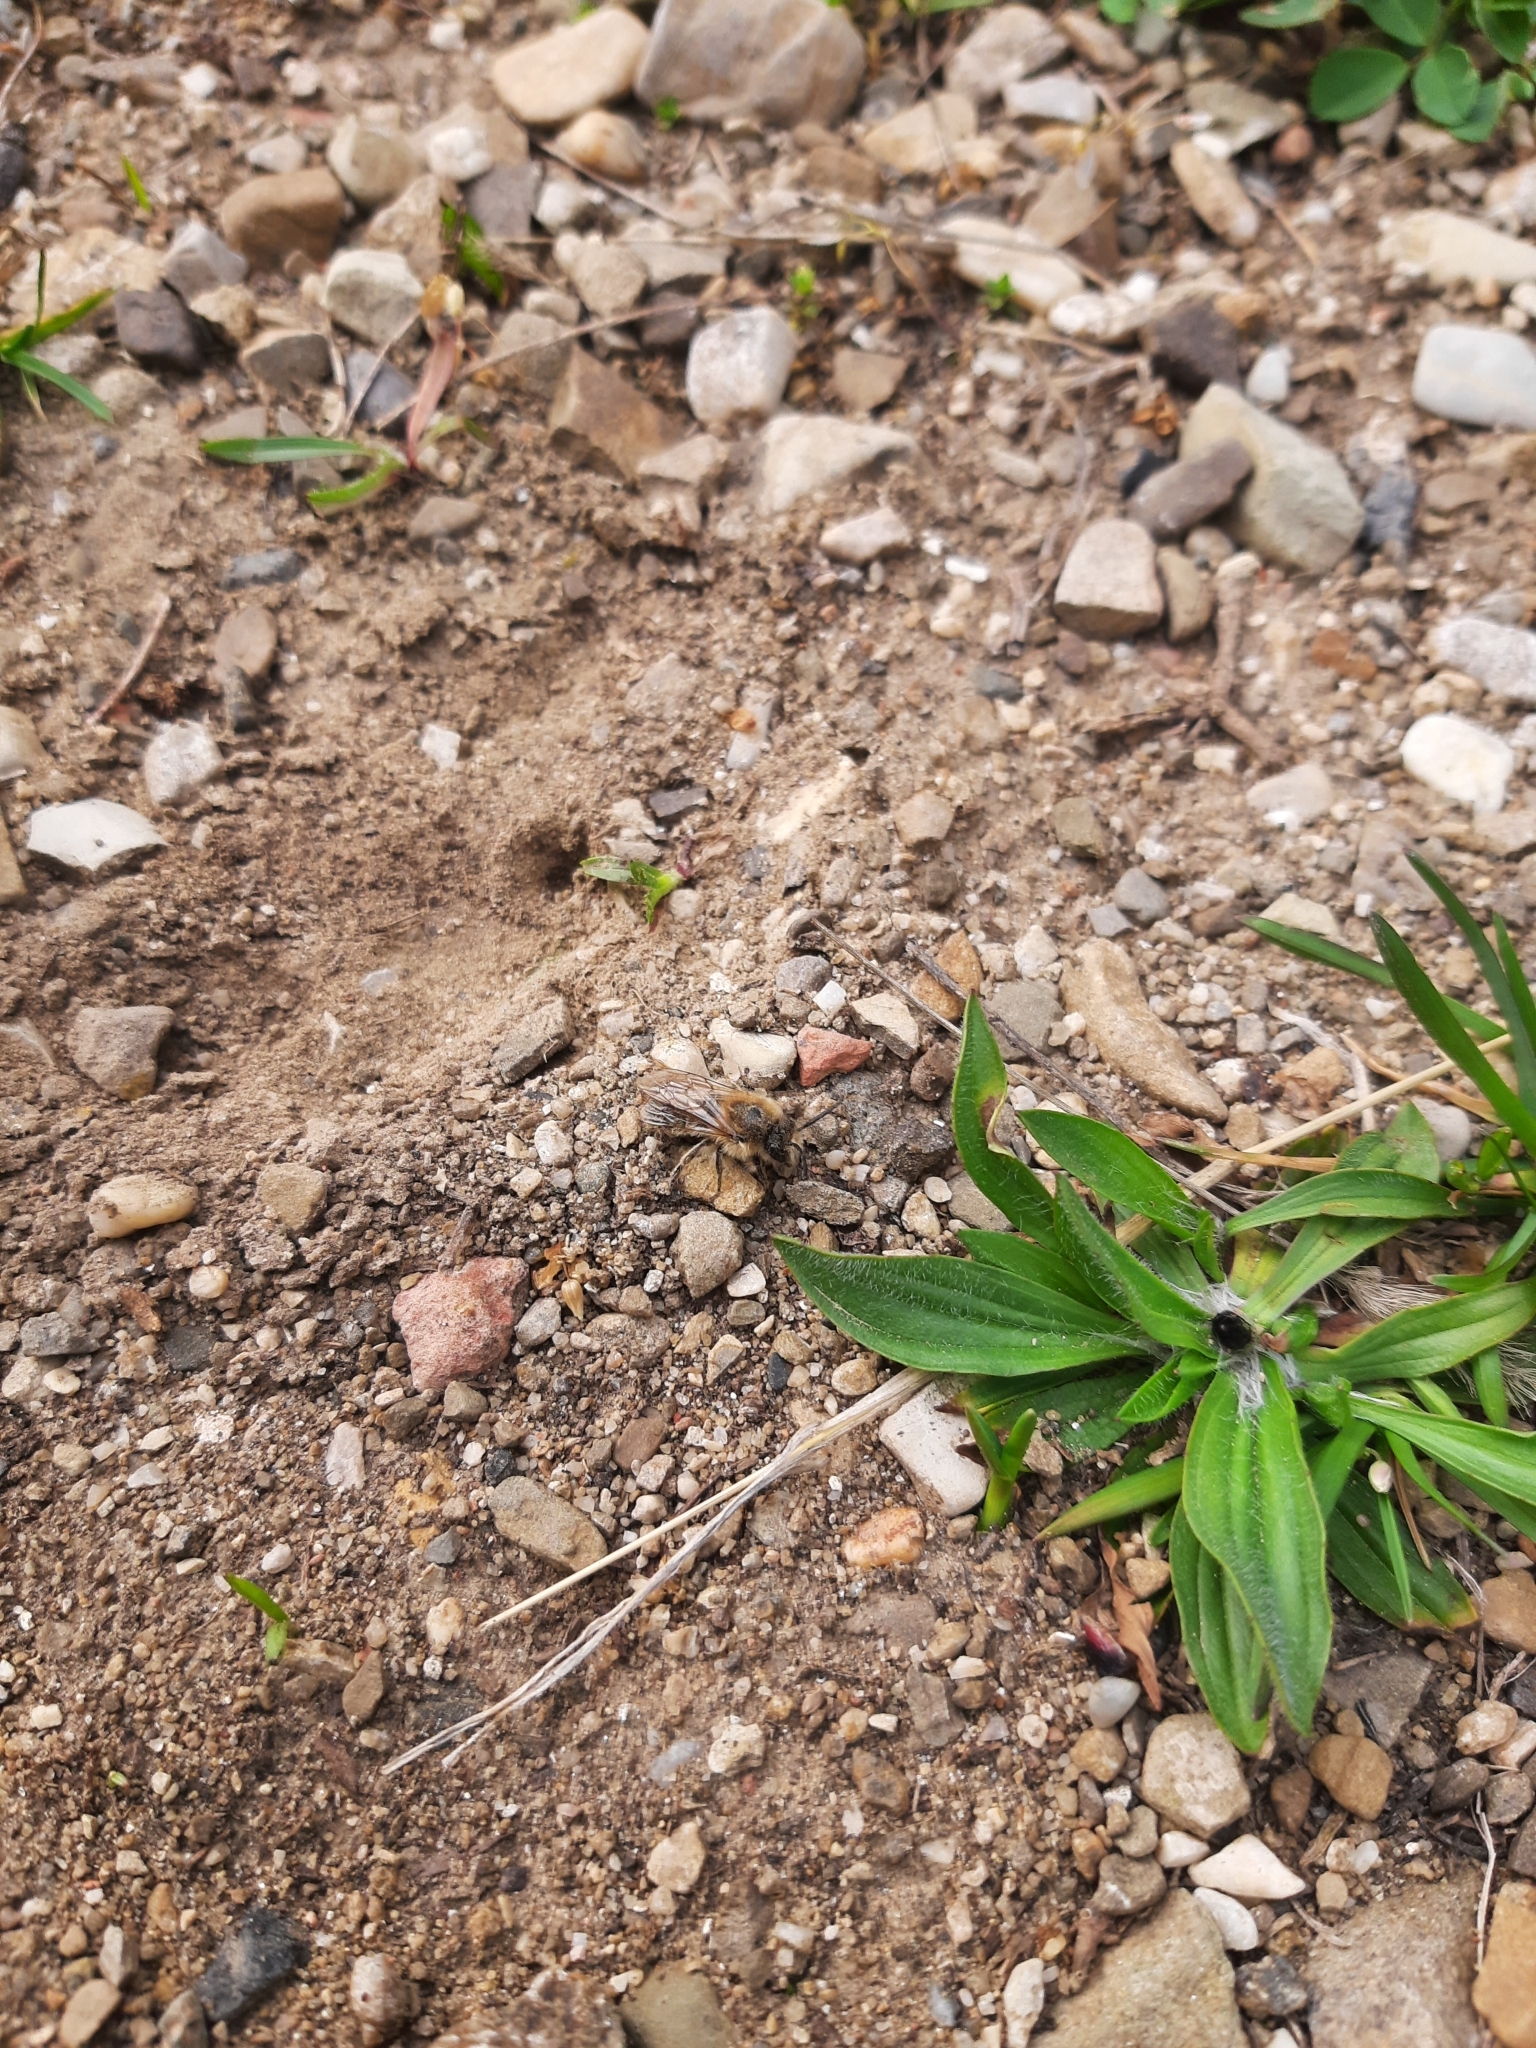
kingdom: Animalia
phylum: Arthropoda
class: Insecta
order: Hymenoptera
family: Colletidae
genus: Colletes
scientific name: Colletes cunicularius
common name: Early colletes
